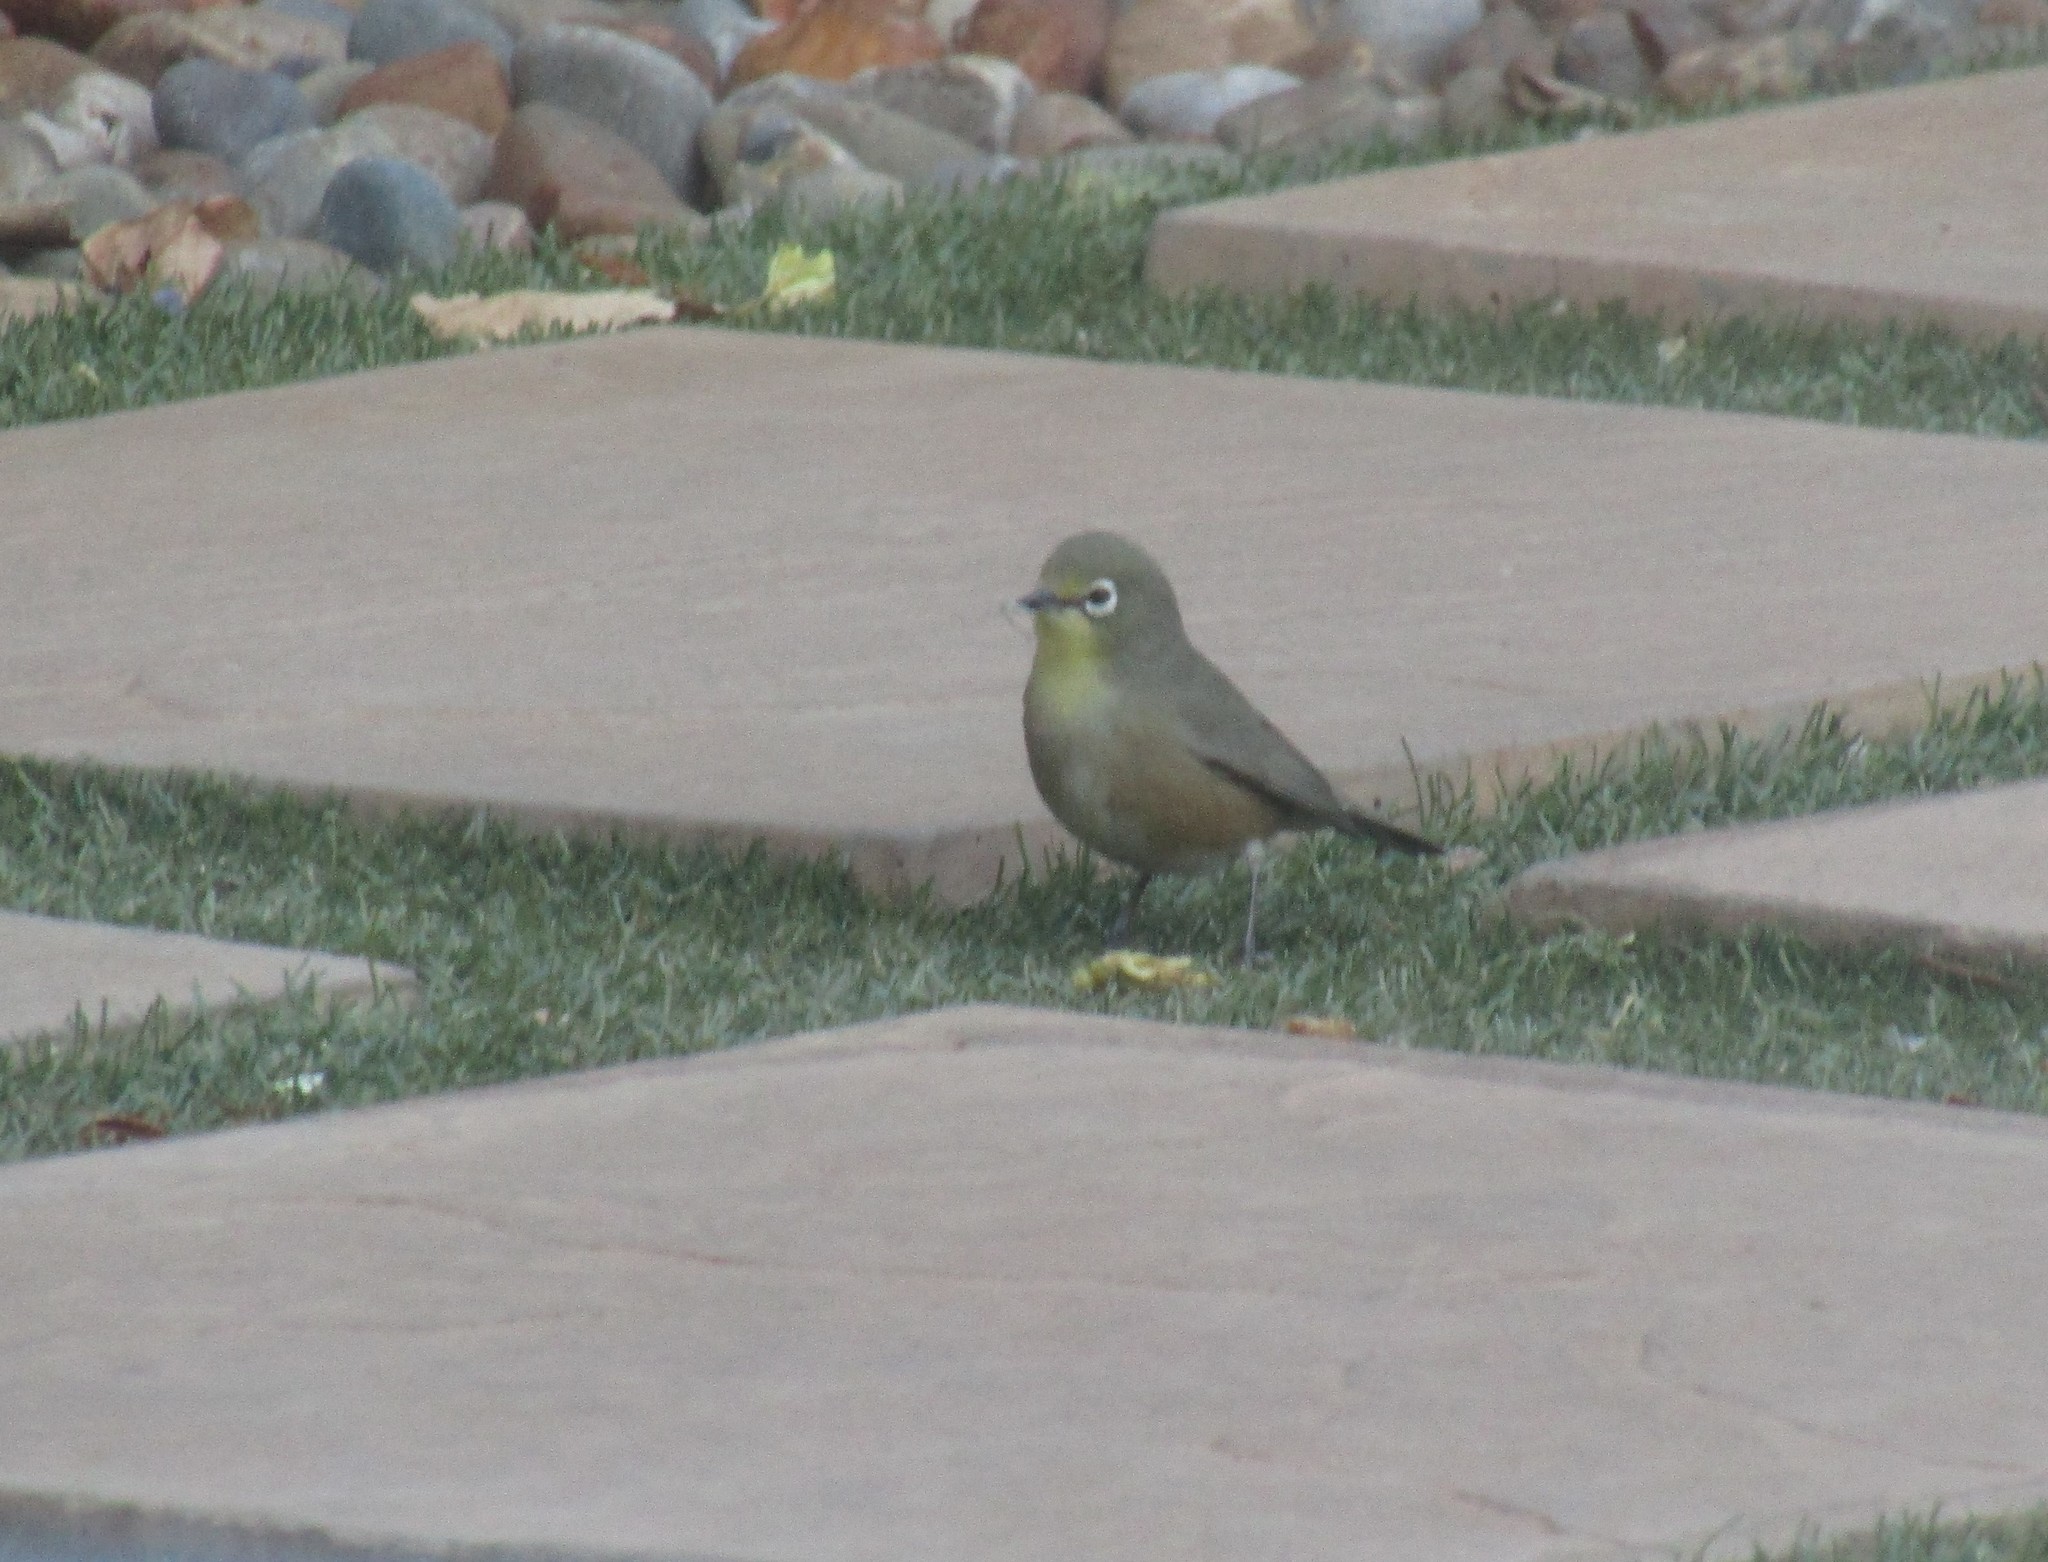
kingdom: Animalia
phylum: Chordata
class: Aves
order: Passeriformes
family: Zosteropidae
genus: Zosterops
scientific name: Zosterops pallidus
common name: Orange river white-eye
